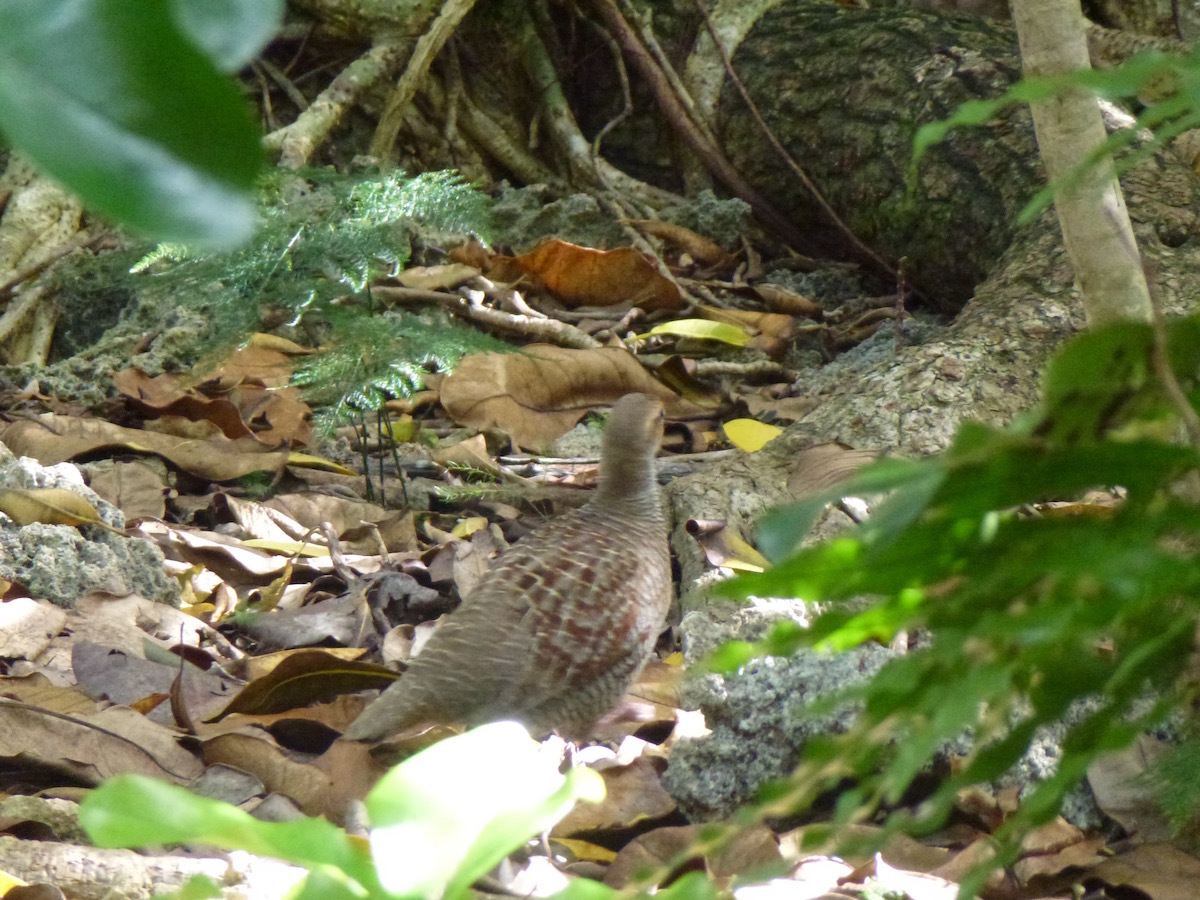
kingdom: Animalia
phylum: Chordata
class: Aves
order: Galliformes
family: Phasianidae
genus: Ortygornis
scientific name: Ortygornis pondicerianus
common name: Grey francolin
